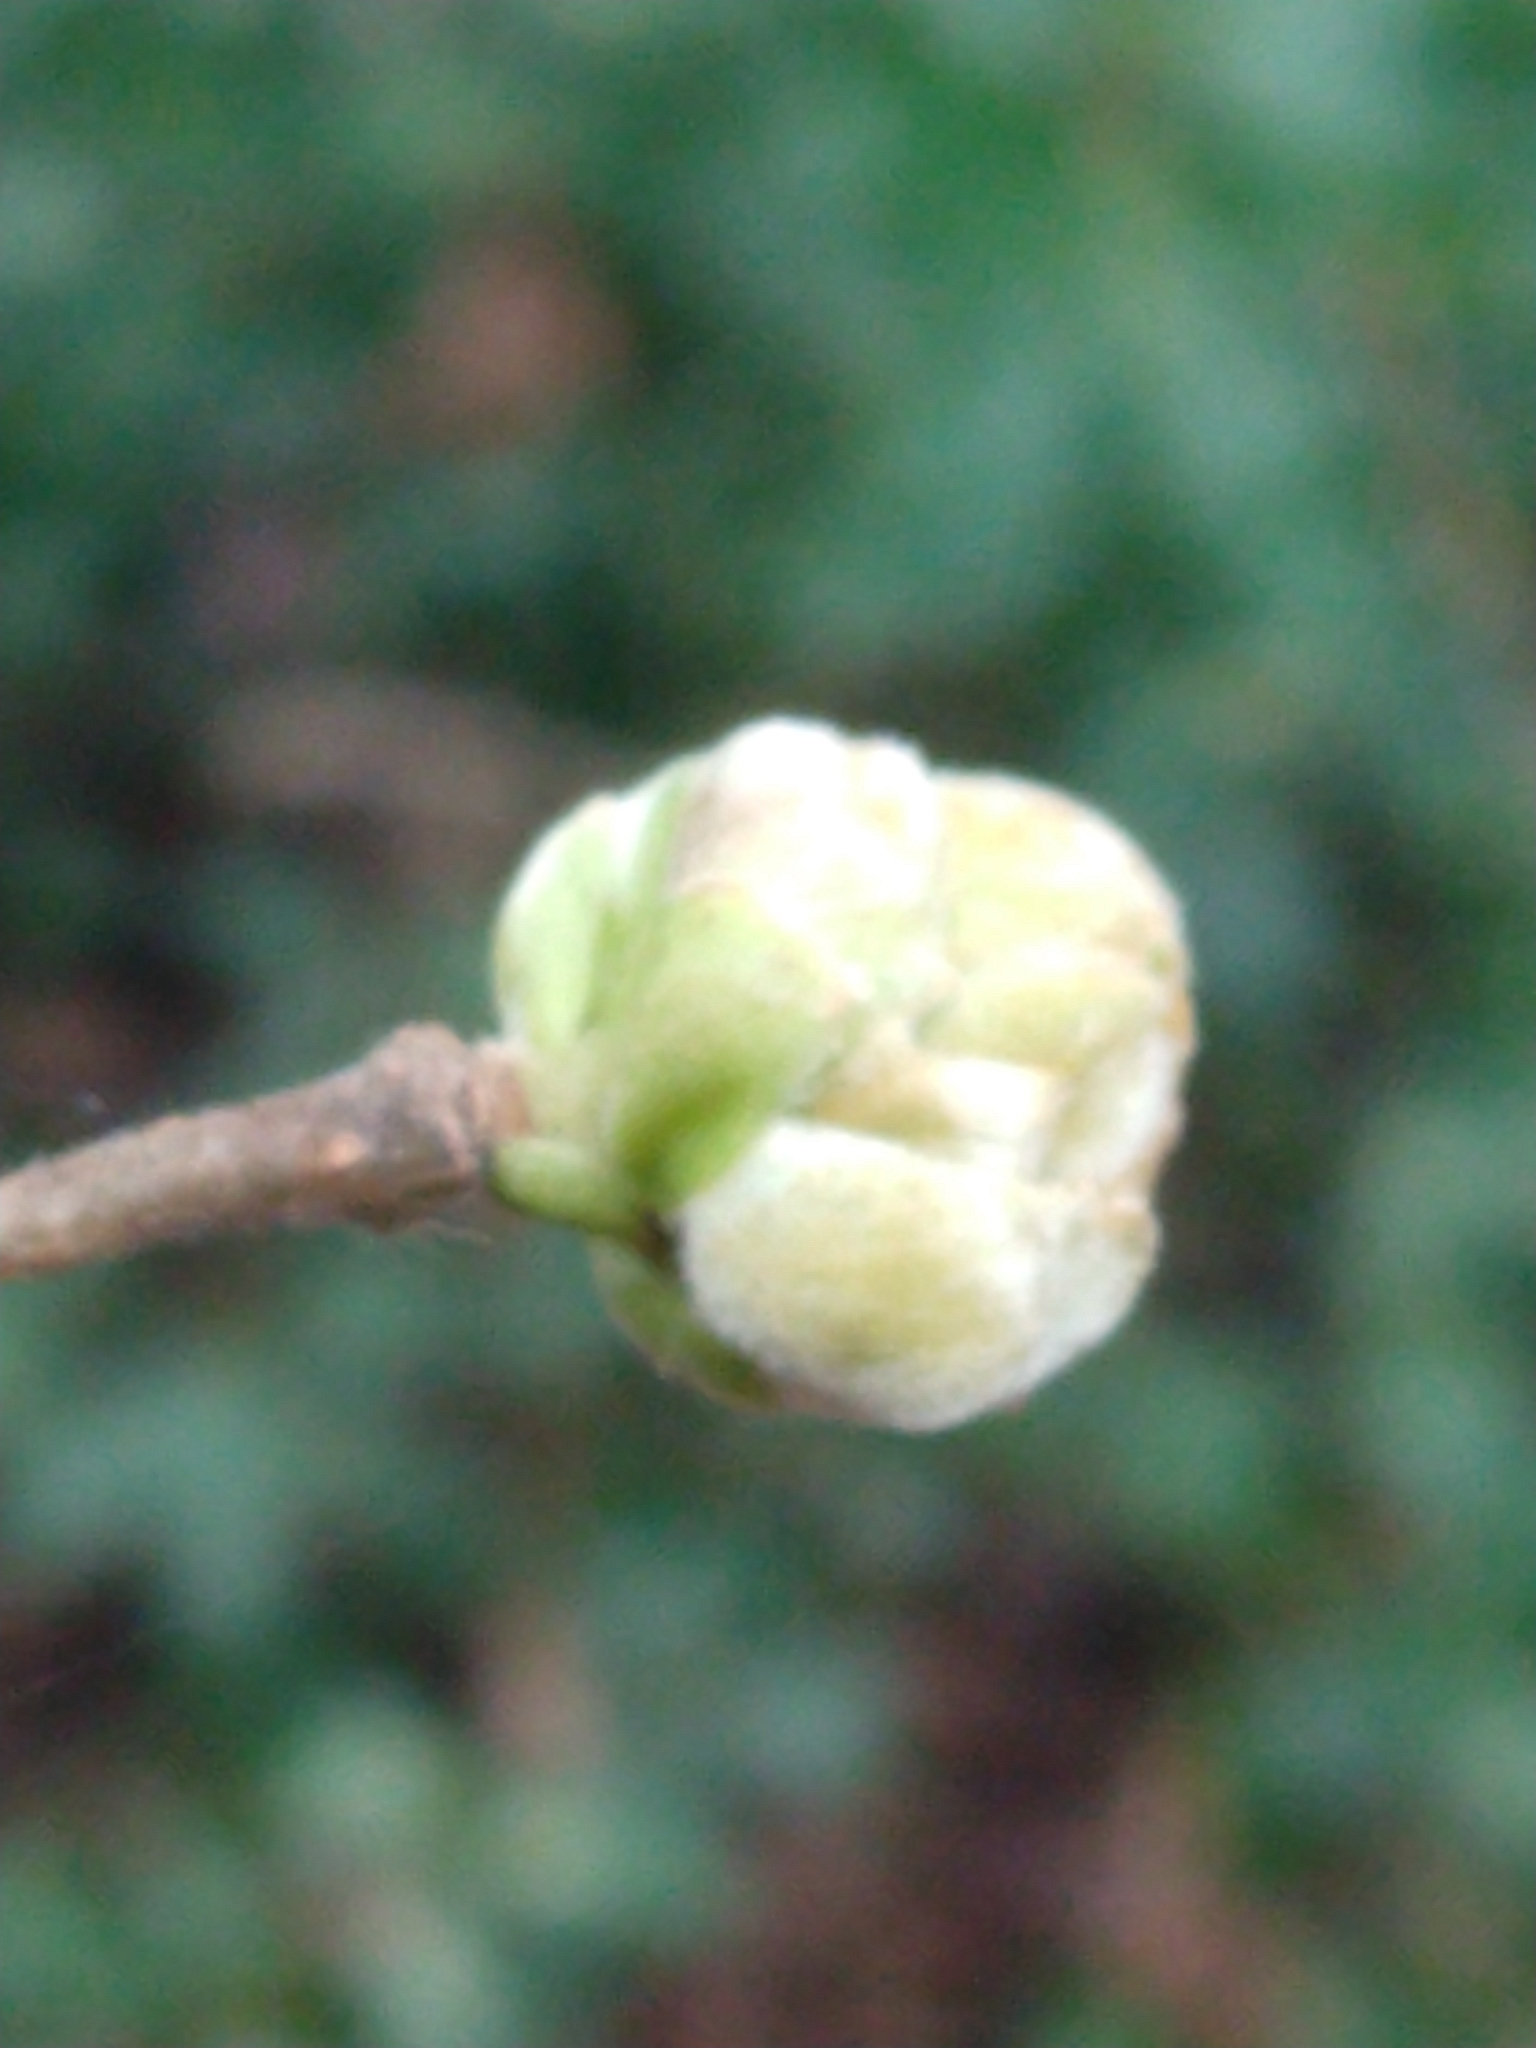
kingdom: Animalia
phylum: Arthropoda
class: Arachnida
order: Trombidiformes
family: Phytoptidae
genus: Phytoptus
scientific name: Phytoptus avellanae
